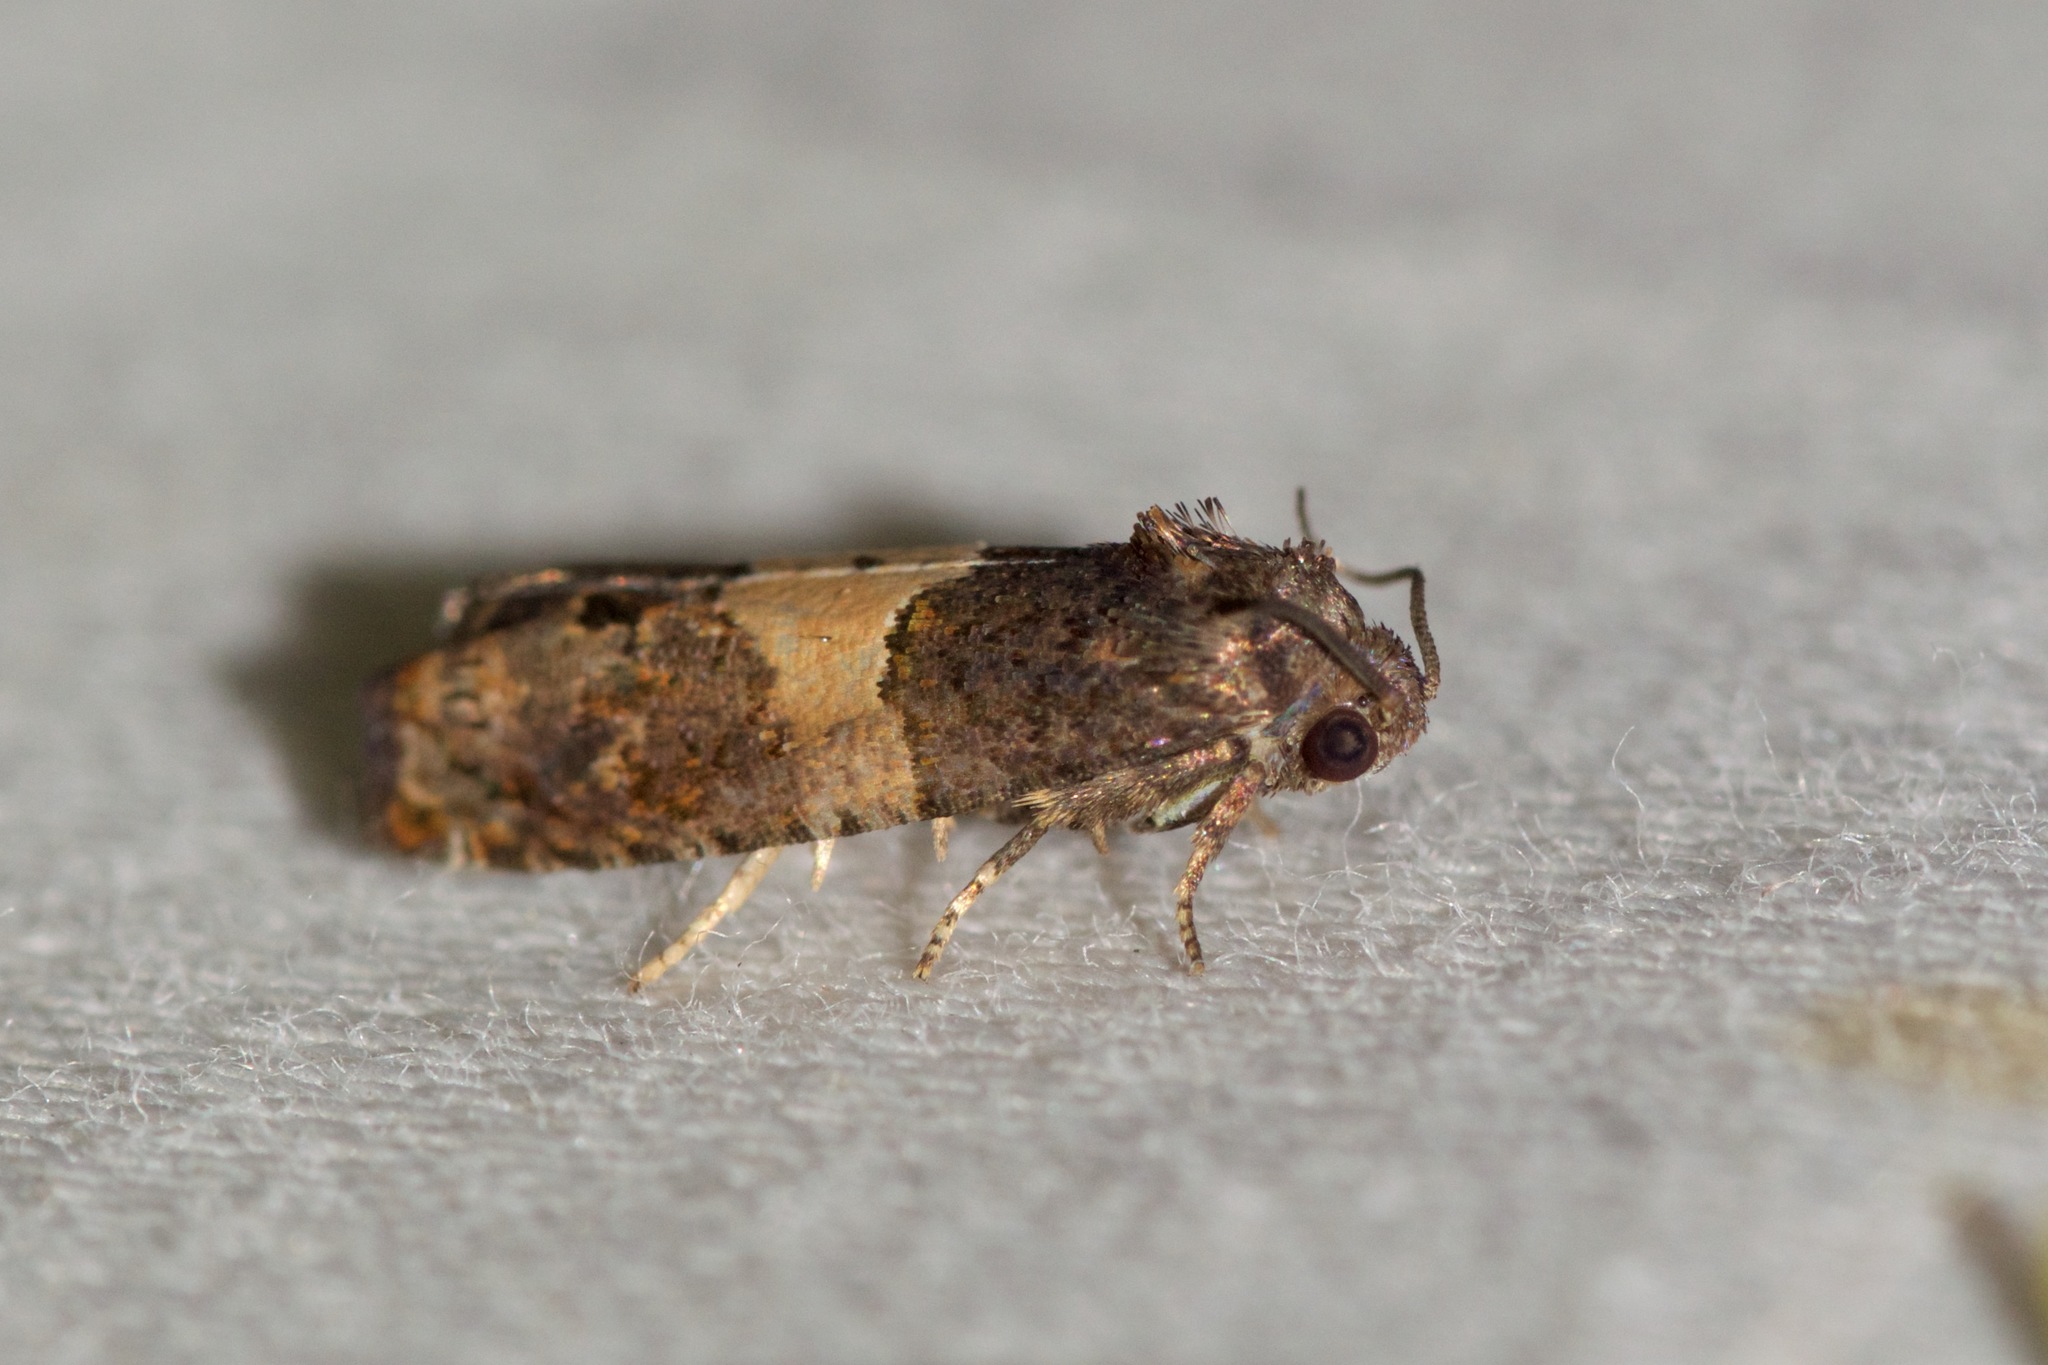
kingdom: Animalia
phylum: Arthropoda
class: Insecta
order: Lepidoptera
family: Tortricidae
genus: Epiblema
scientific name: Epiblema glenni
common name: Glenn's epiblema
